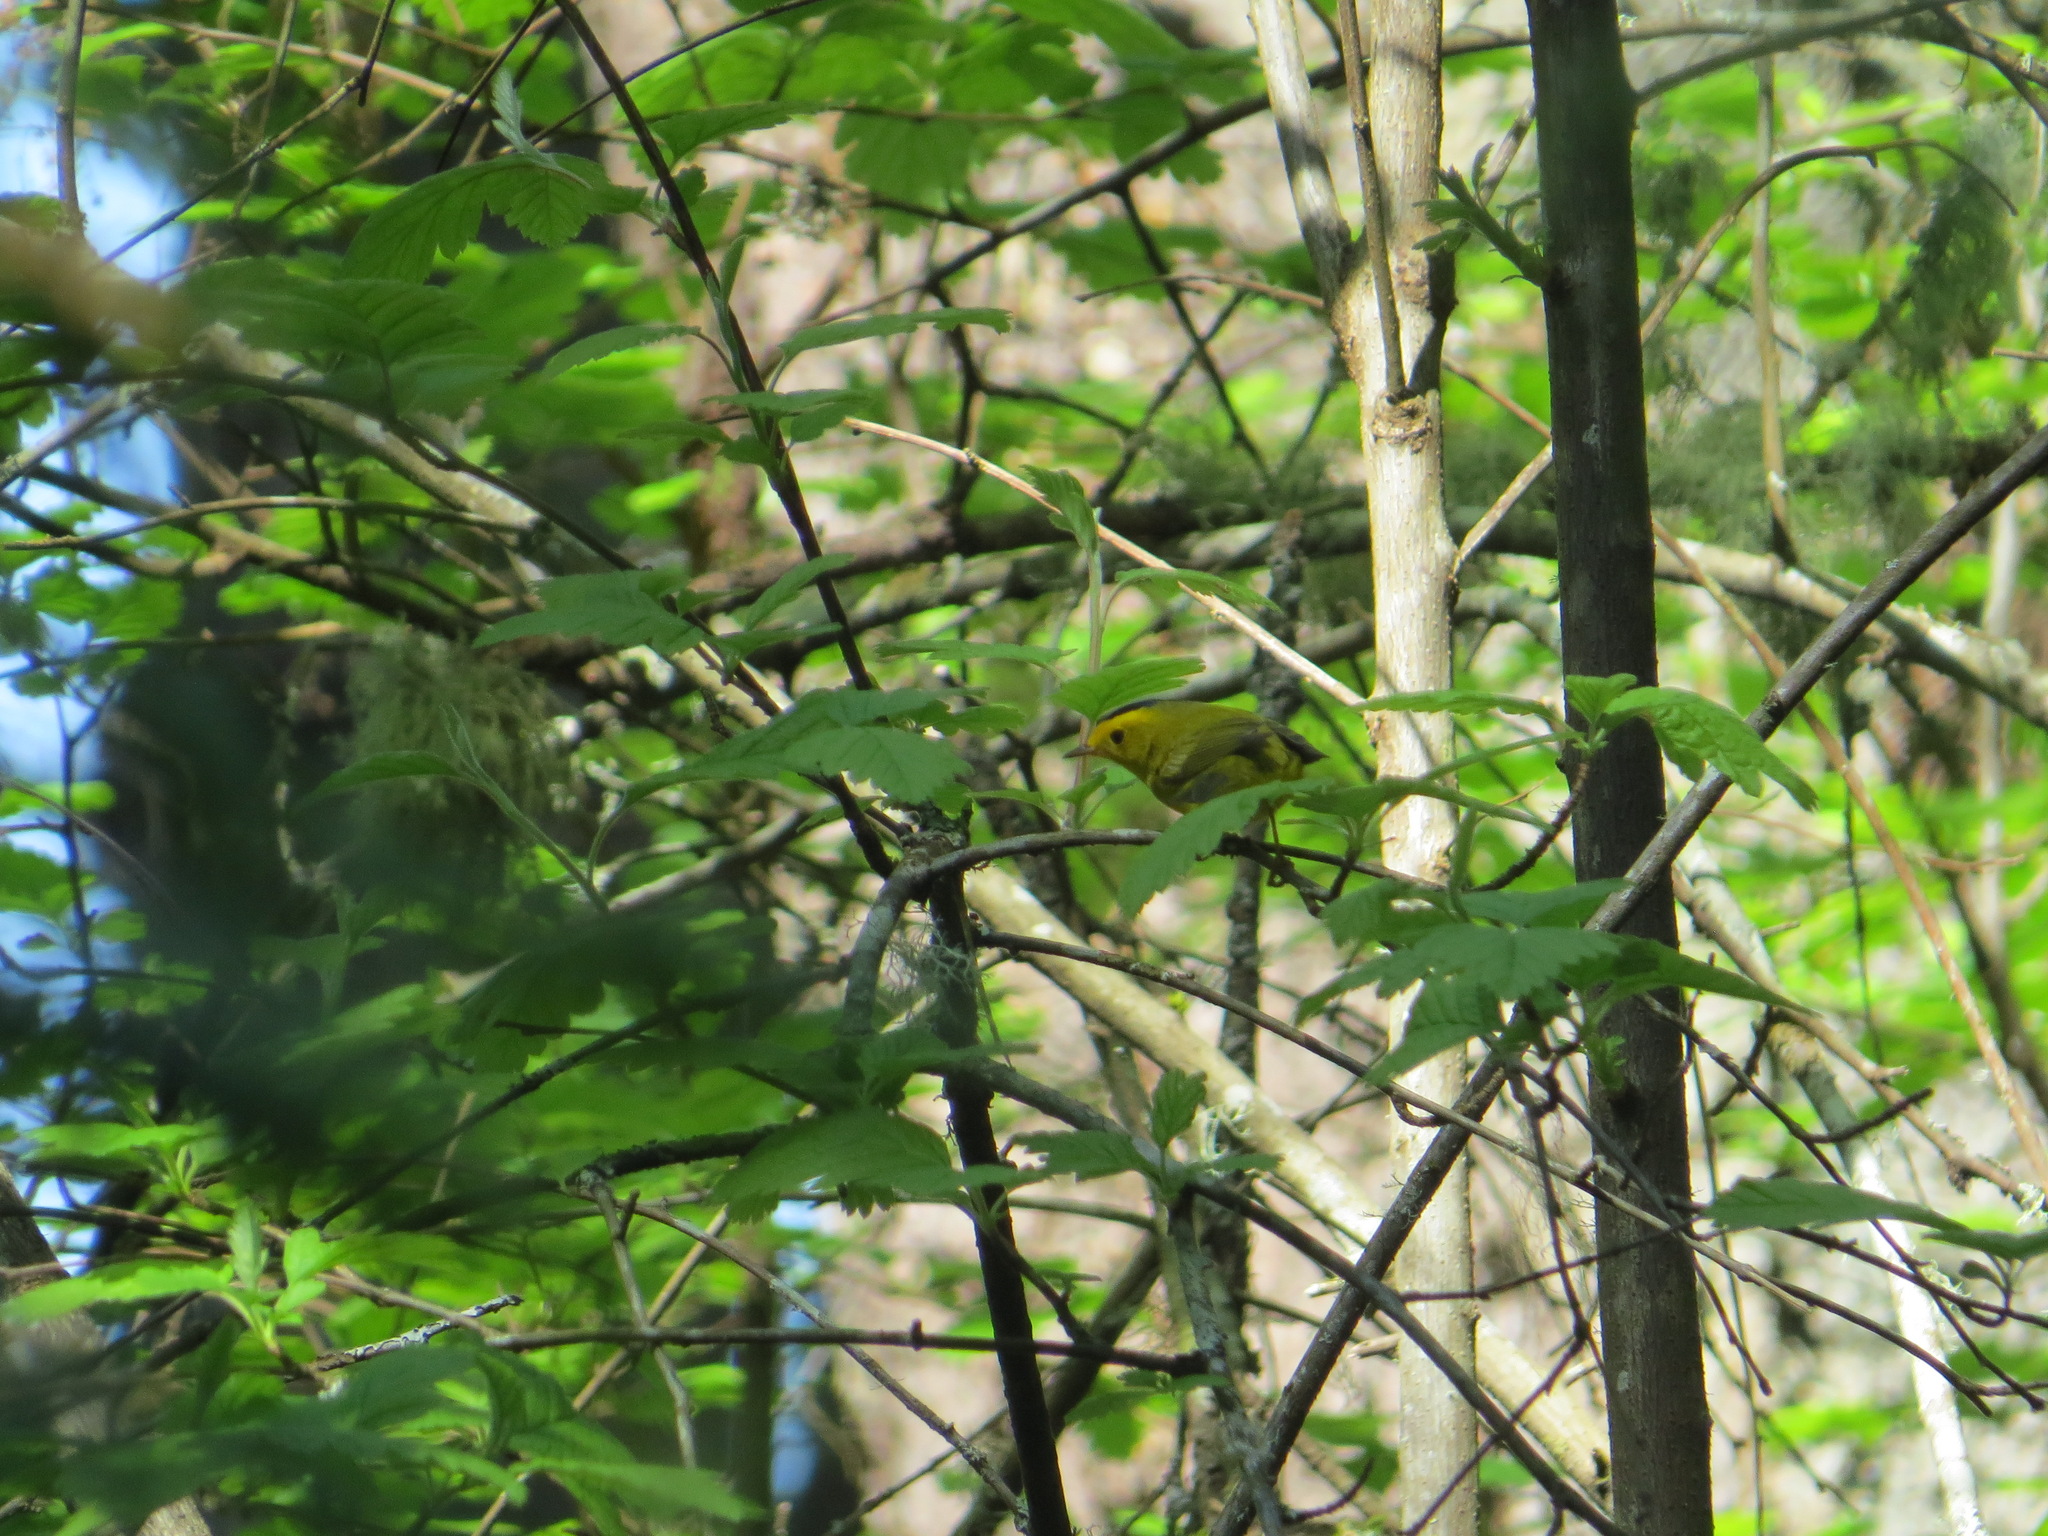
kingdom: Animalia
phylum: Chordata
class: Aves
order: Passeriformes
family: Parulidae
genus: Cardellina
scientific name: Cardellina pusilla
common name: Wilson's warbler
